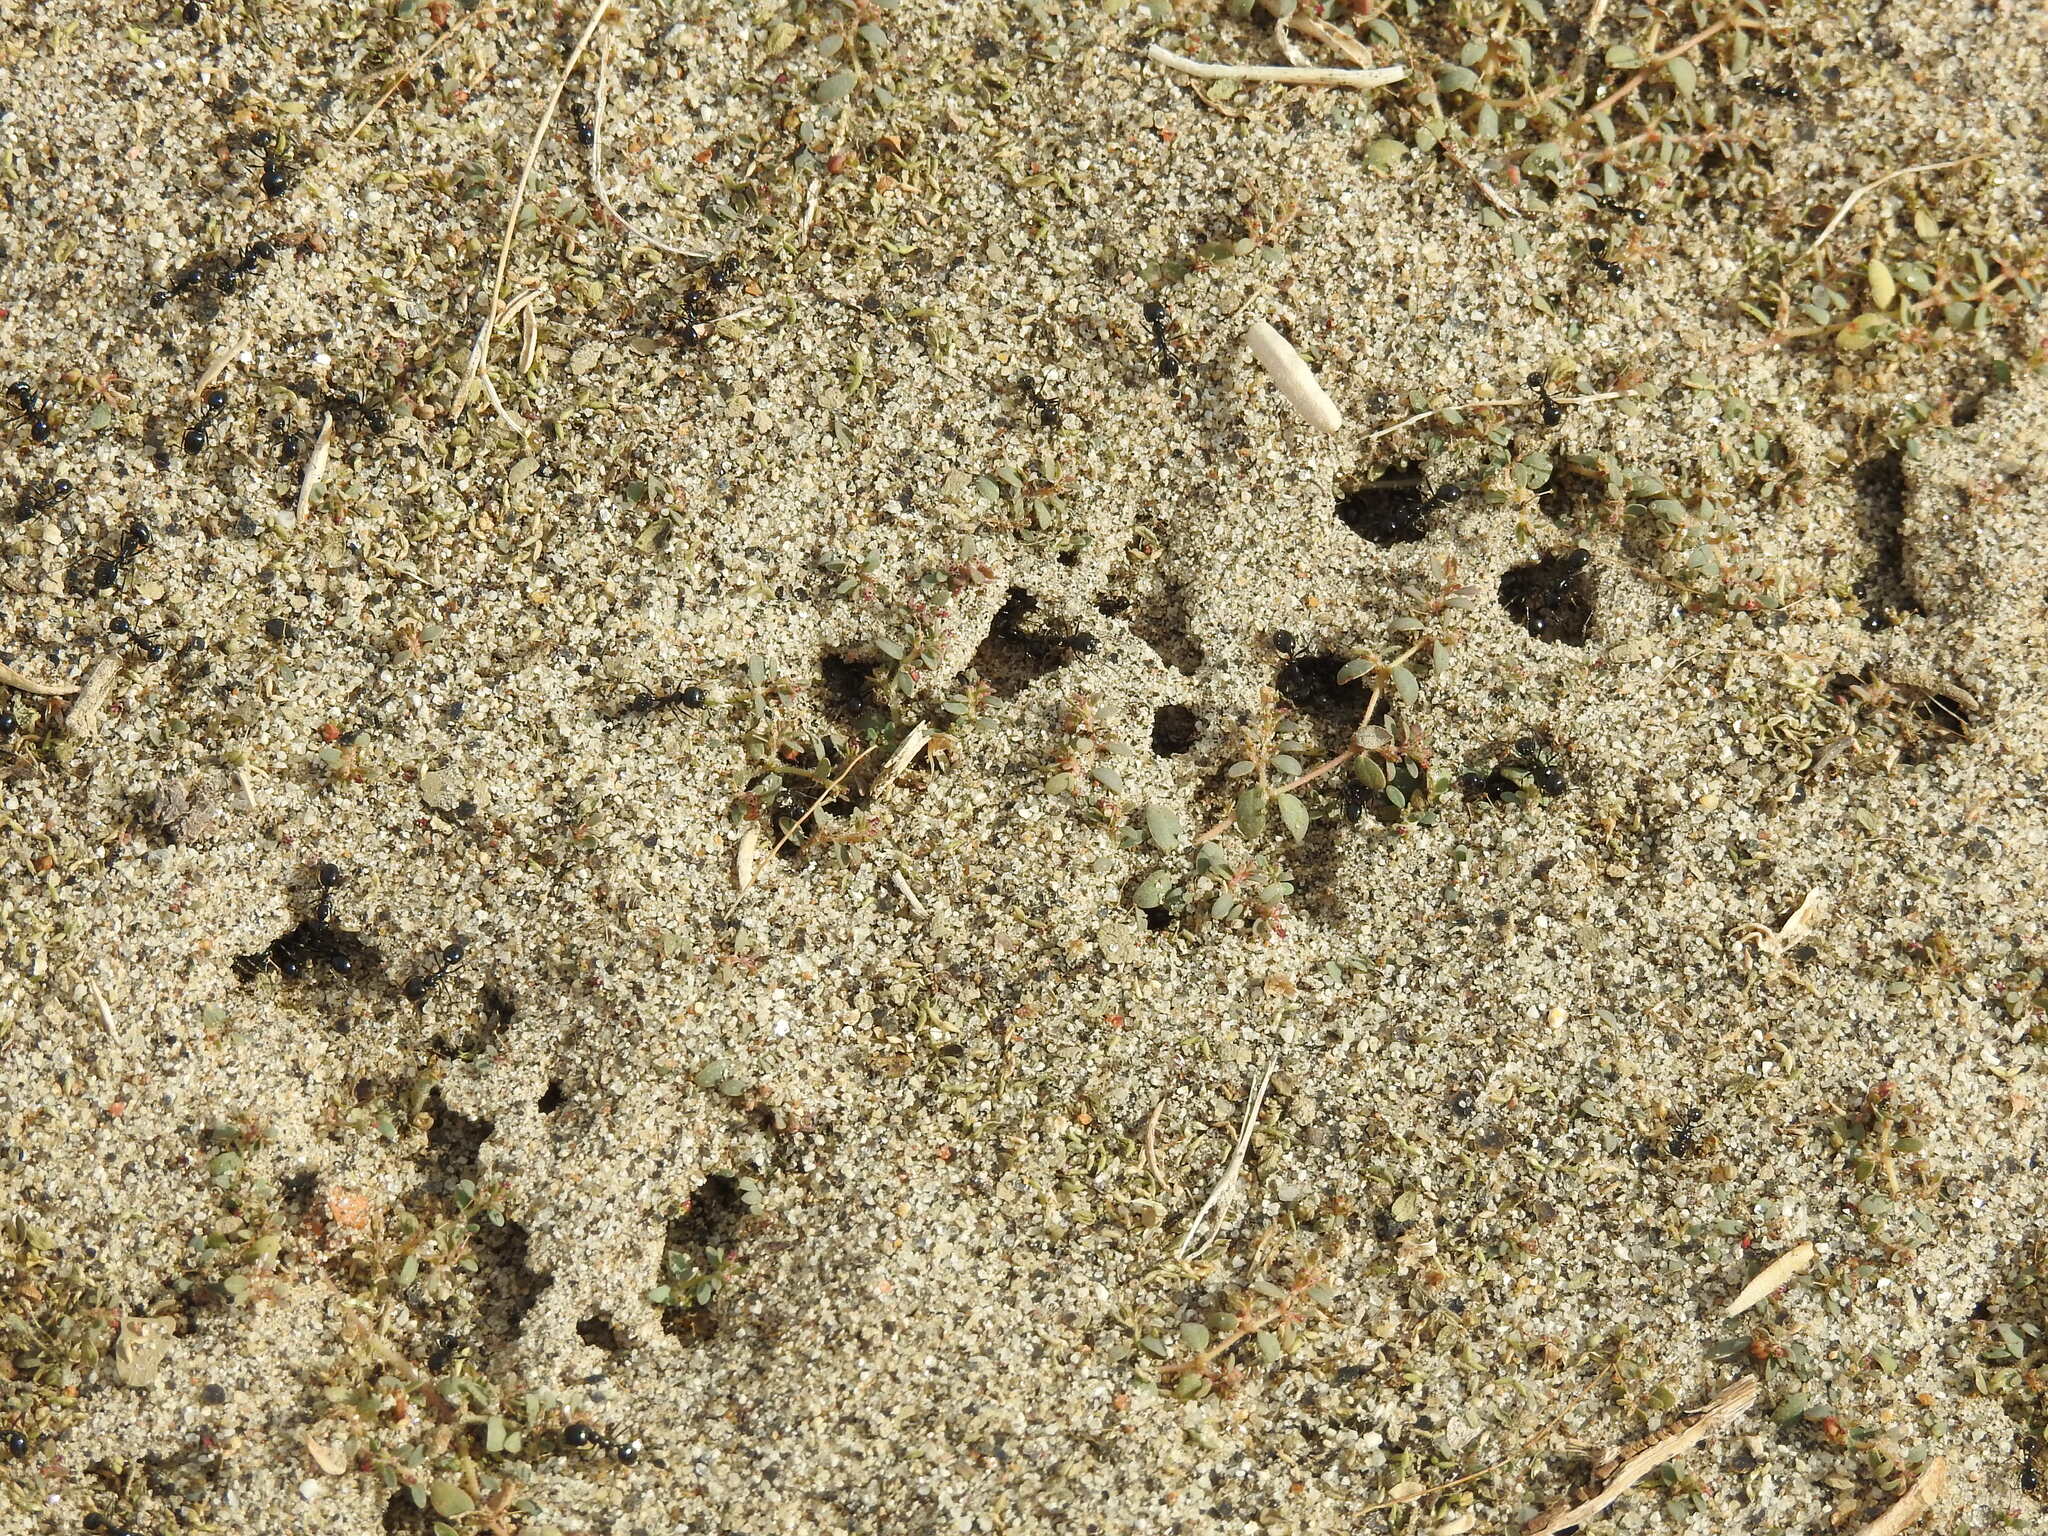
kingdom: Animalia
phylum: Arthropoda
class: Insecta
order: Hymenoptera
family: Formicidae
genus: Messor
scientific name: Messor pergandei
